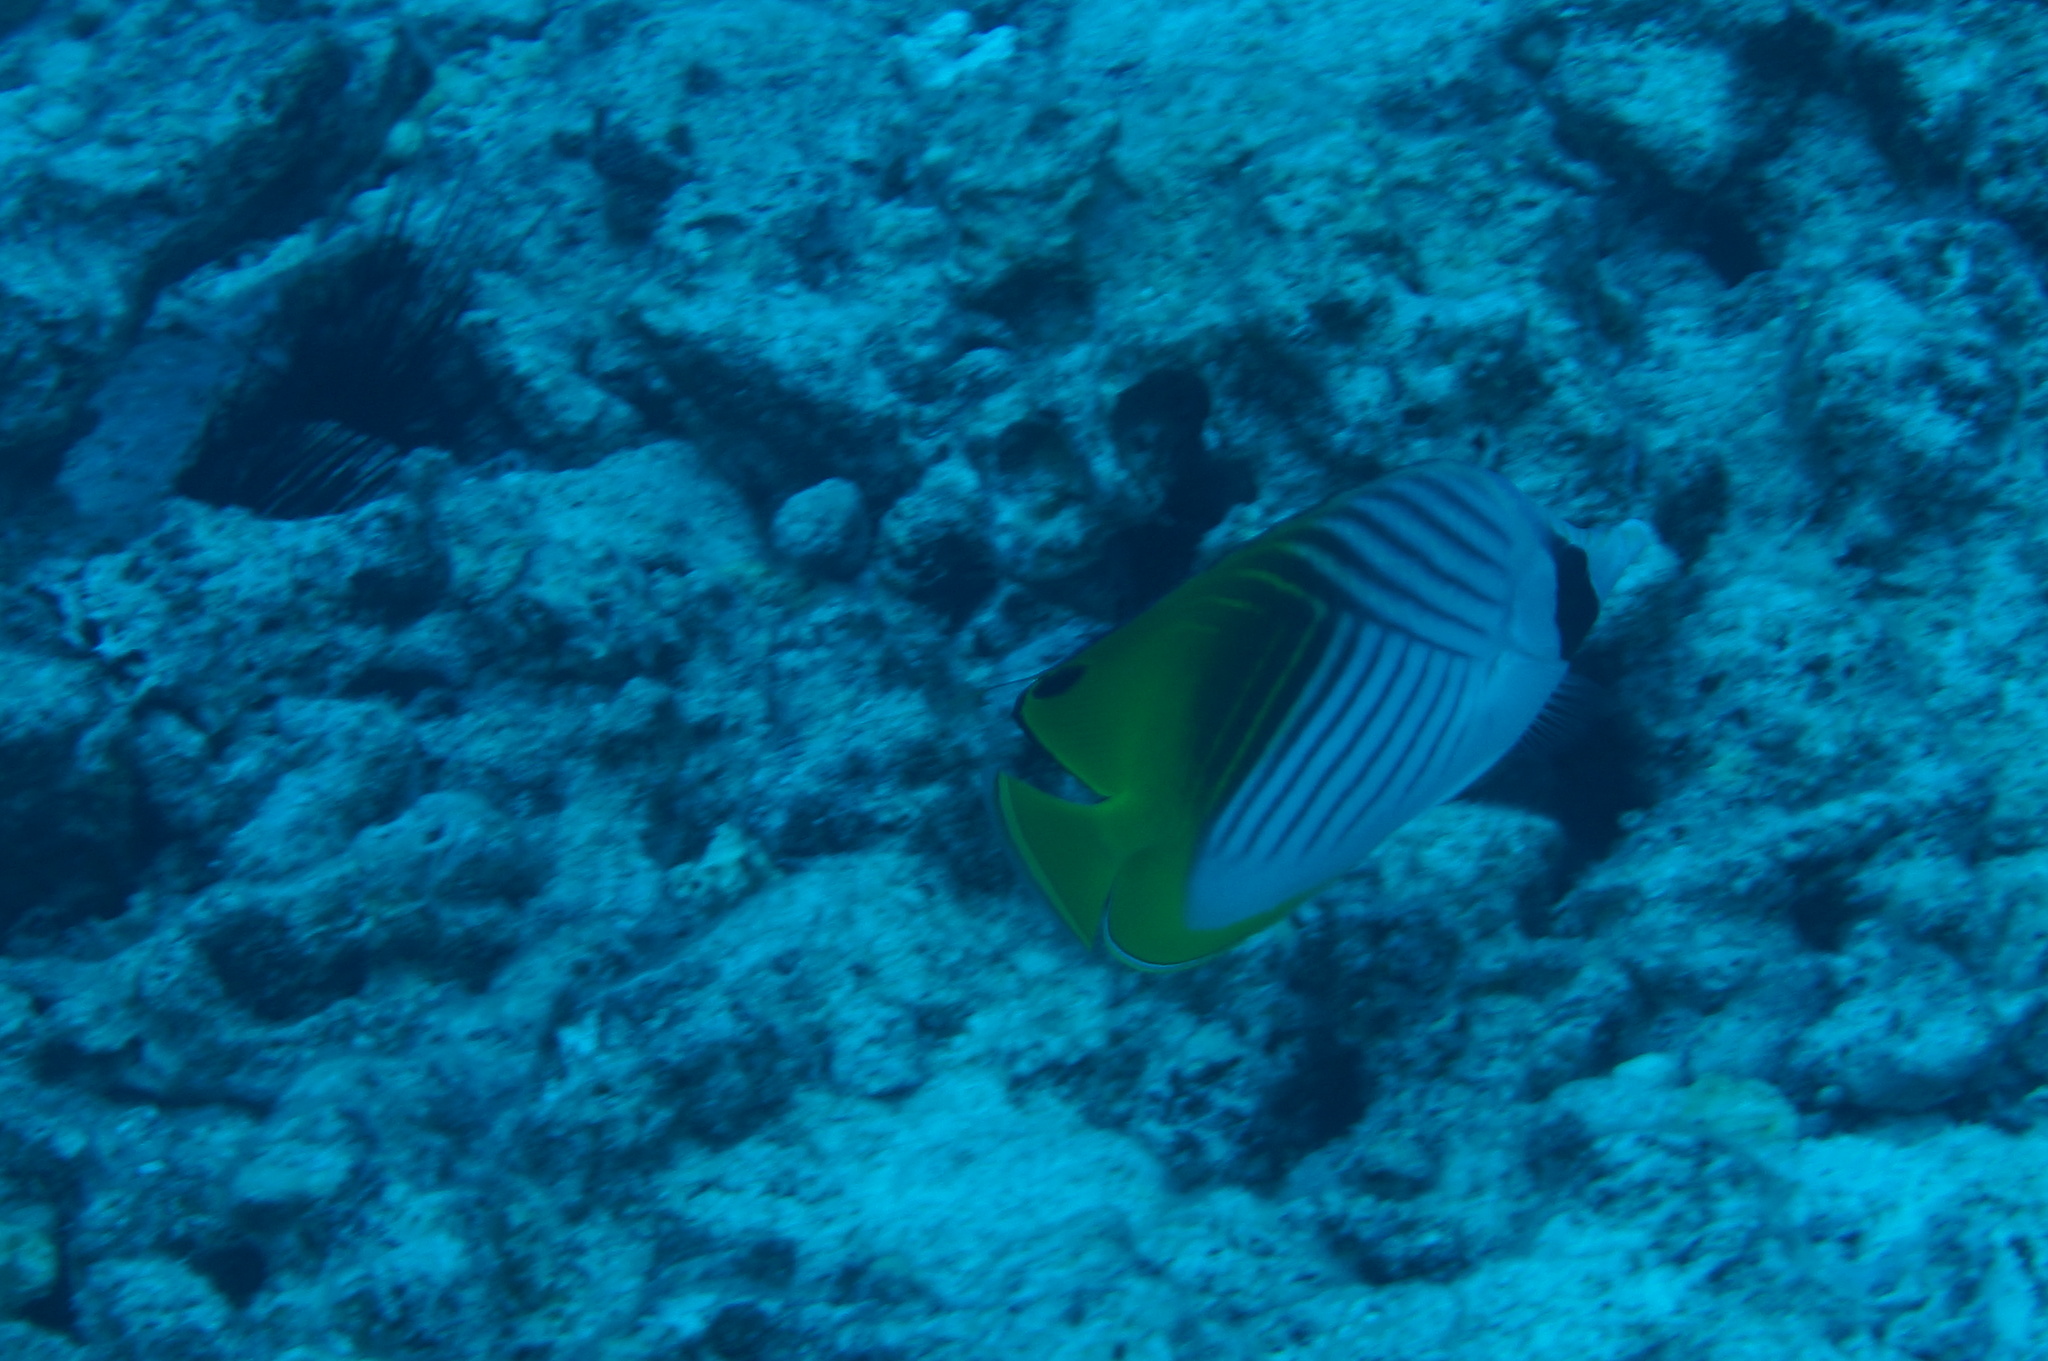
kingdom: Animalia
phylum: Chordata
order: Perciformes
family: Chaetodontidae
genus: Chaetodon
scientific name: Chaetodon auriga
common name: Threadfin butterflyfish
